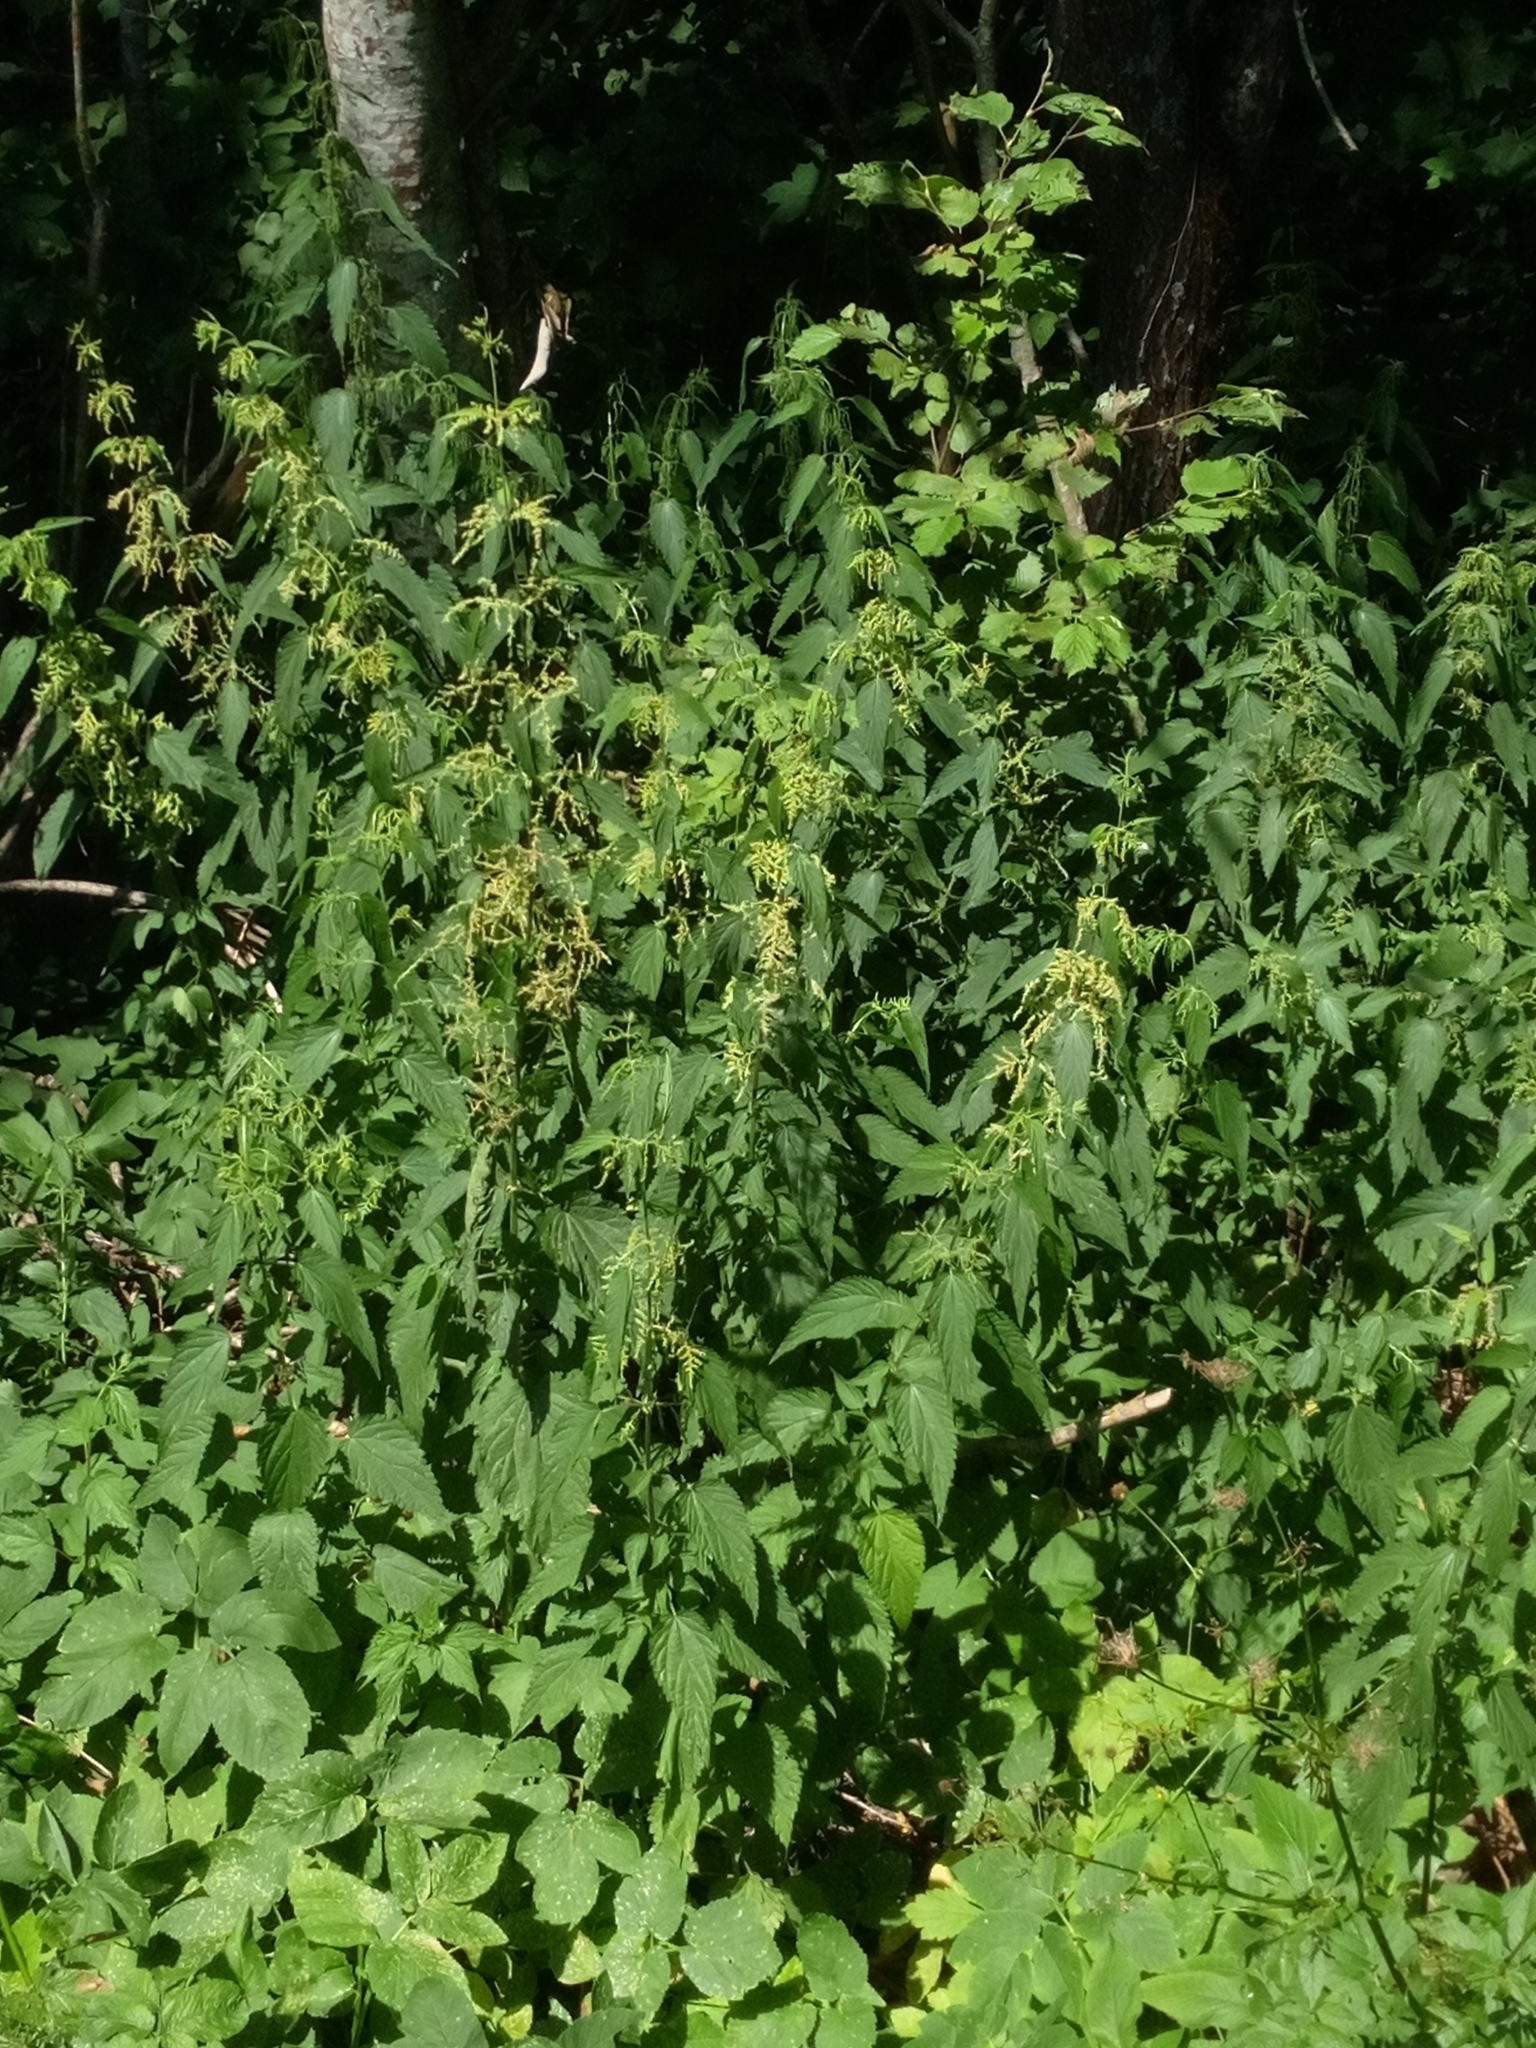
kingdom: Plantae
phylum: Tracheophyta
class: Magnoliopsida
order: Rosales
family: Urticaceae
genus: Urtica
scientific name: Urtica dioica
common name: Common nettle
